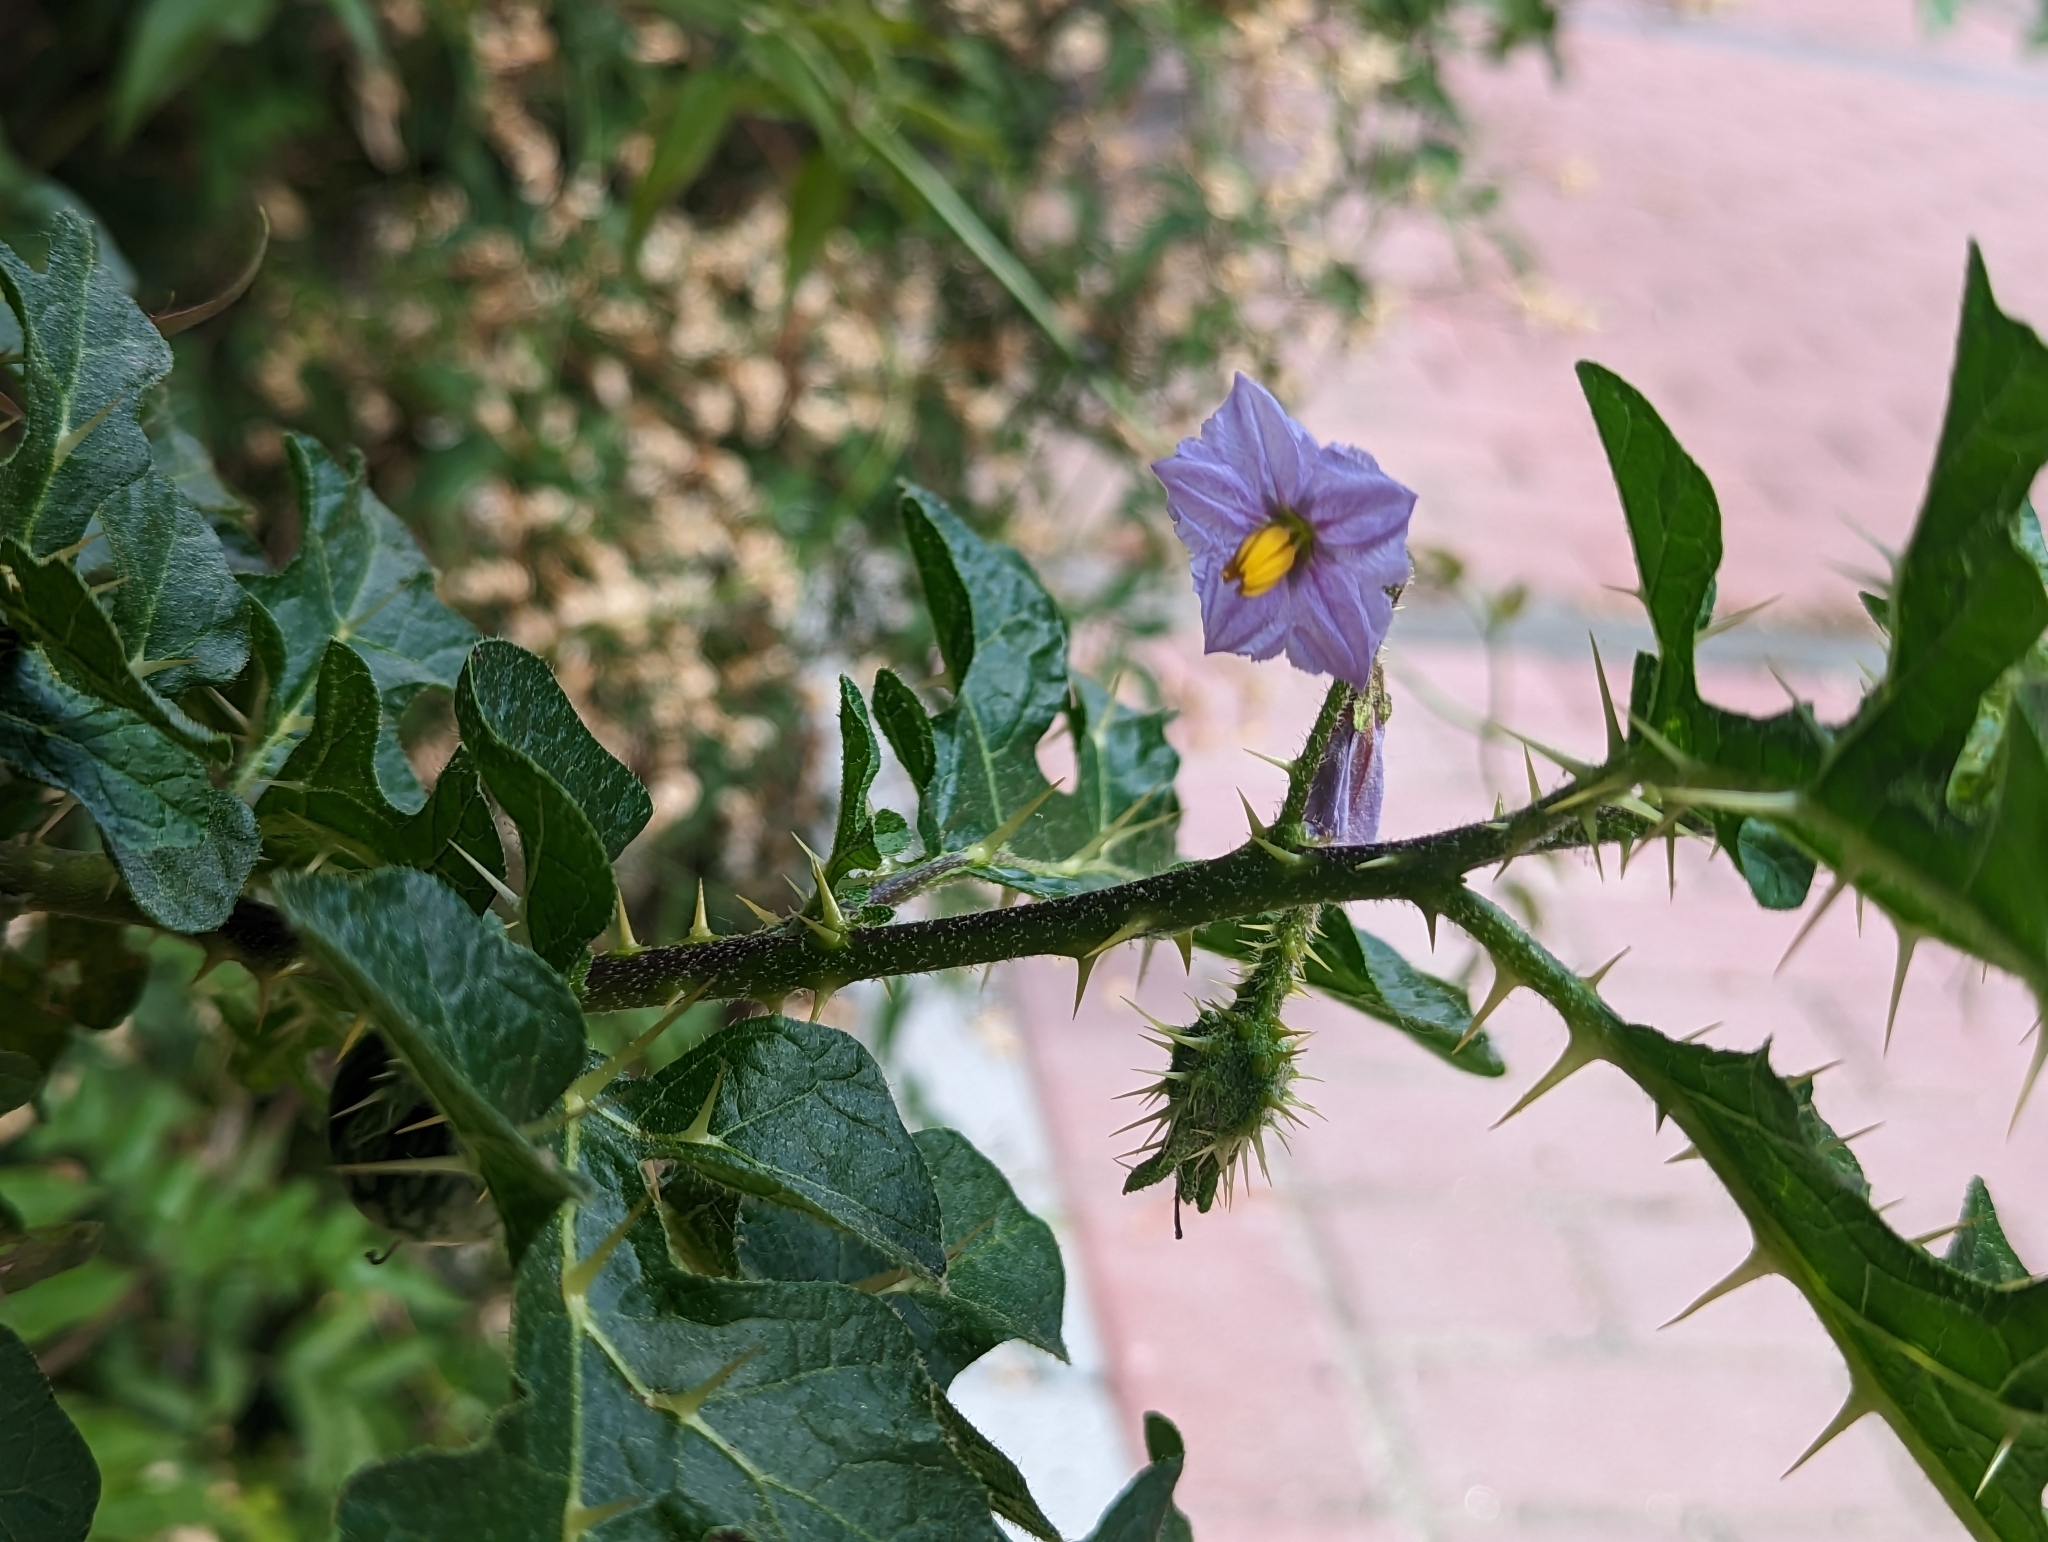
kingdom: Plantae
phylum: Tracheophyta
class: Magnoliopsida
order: Solanales
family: Solanaceae
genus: Solanum
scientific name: Solanum linnaeanum
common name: Nightshade
